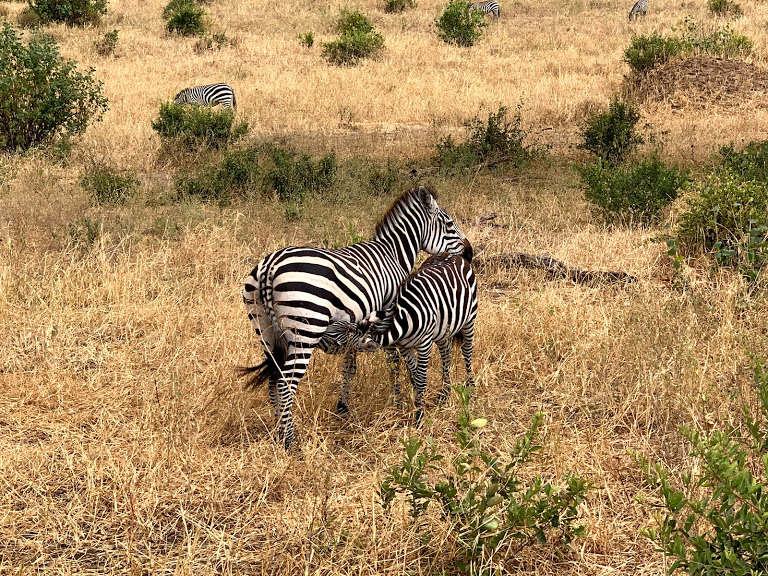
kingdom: Animalia
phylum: Chordata
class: Mammalia
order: Perissodactyla
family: Equidae
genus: Equus
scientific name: Equus quagga
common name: Plains zebra
